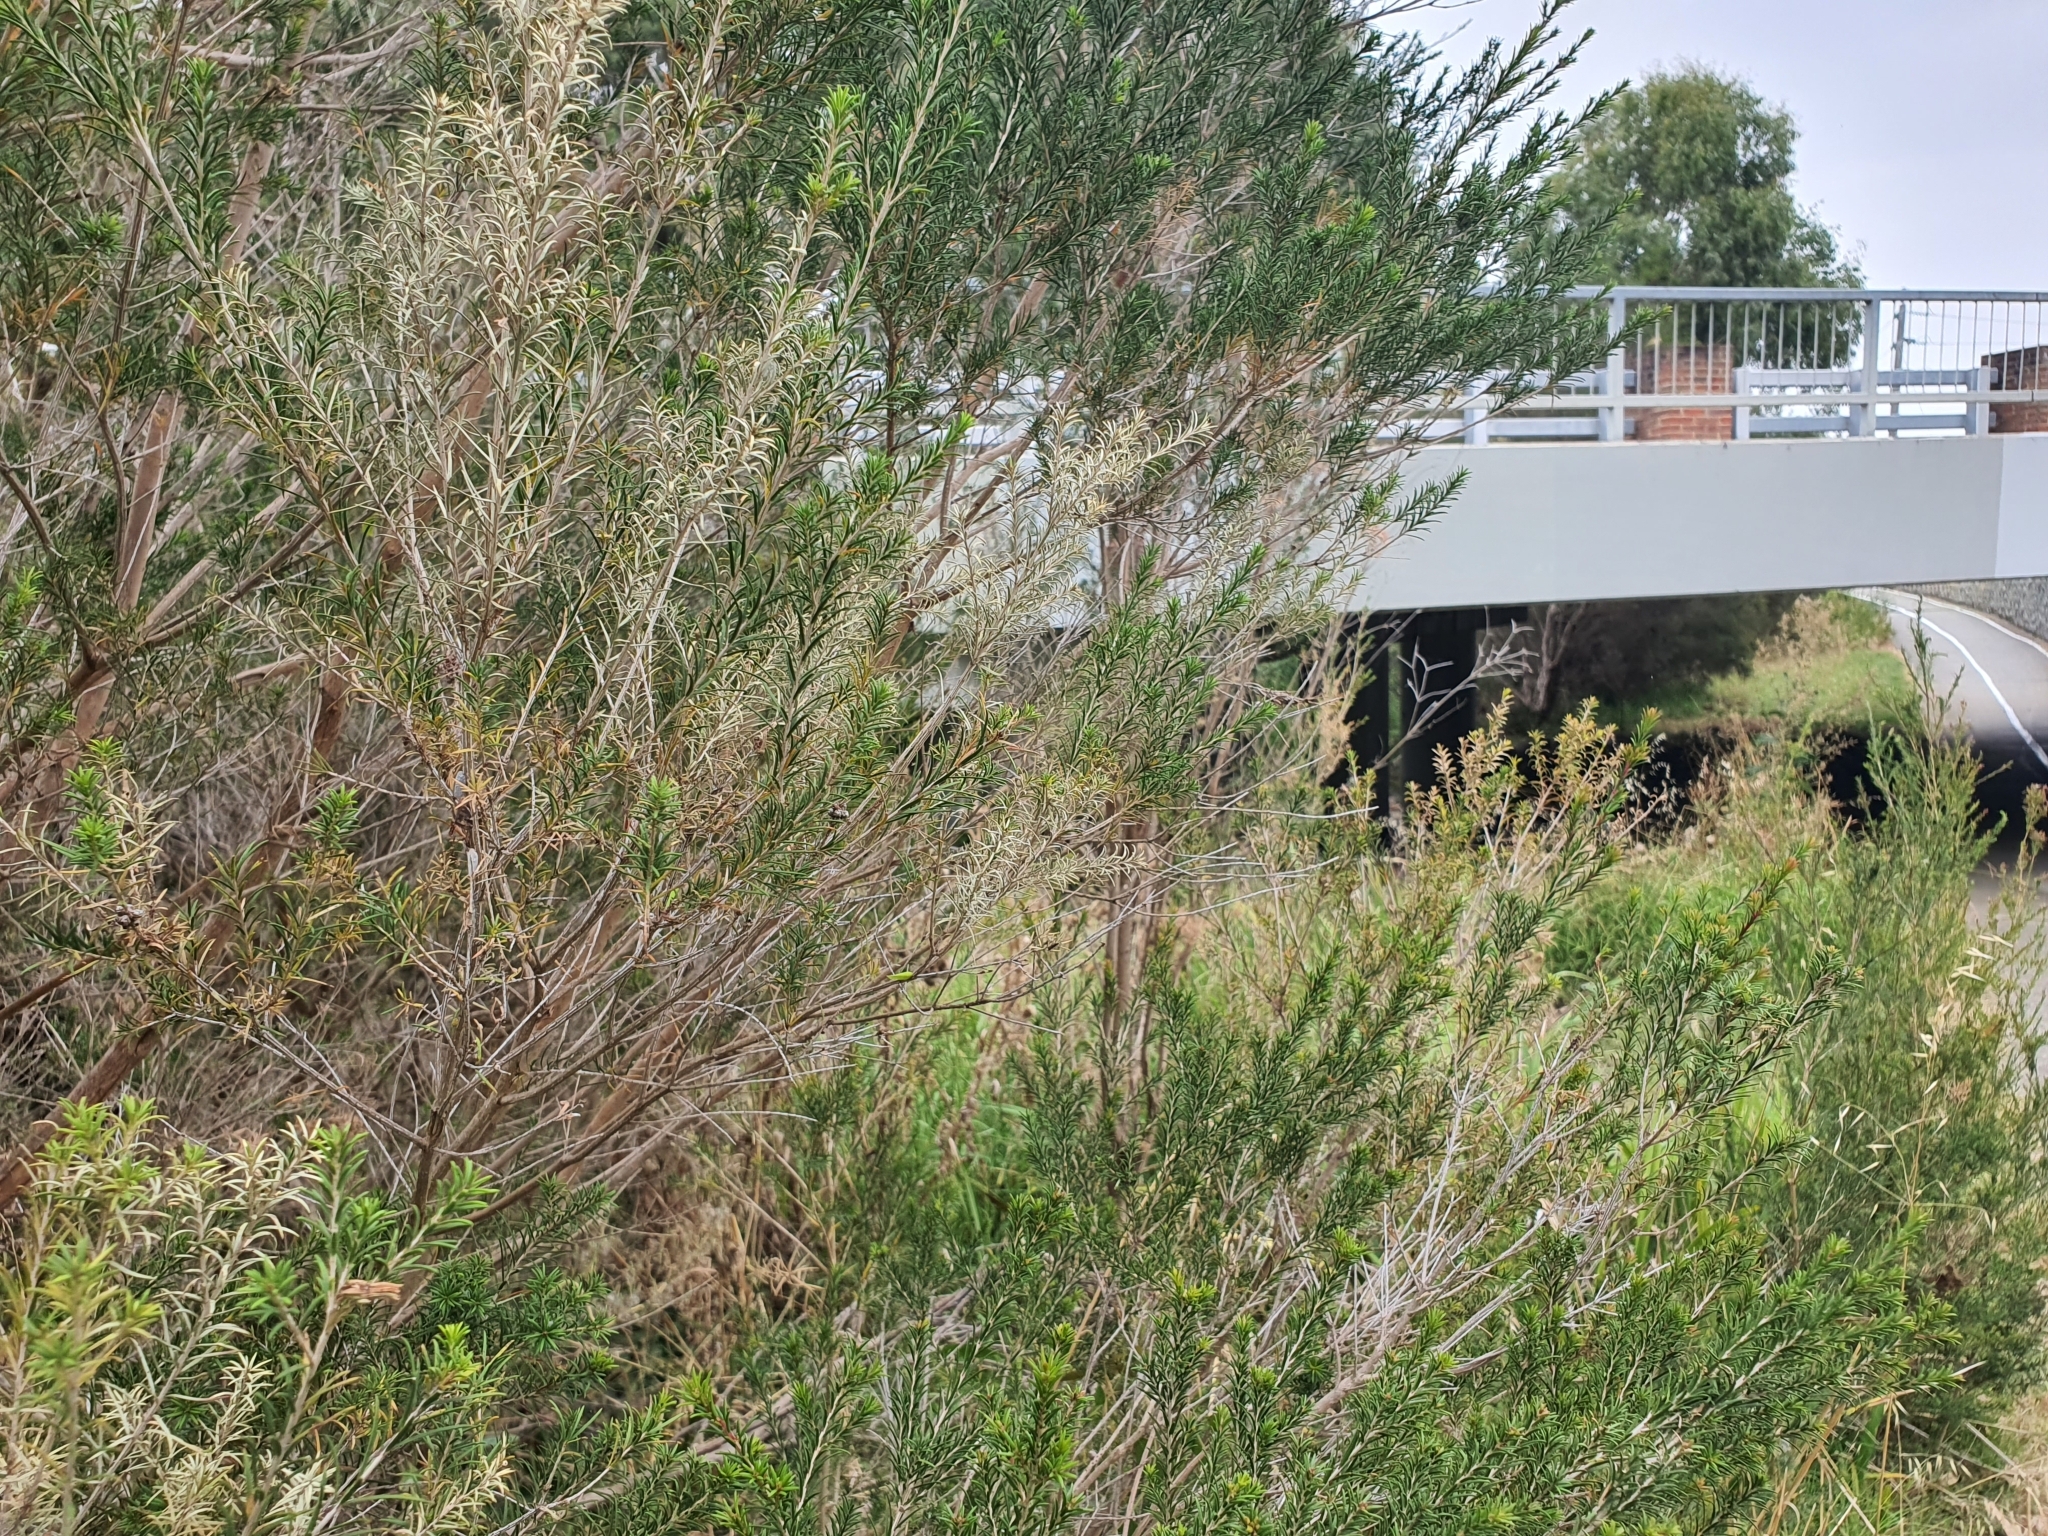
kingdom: Animalia
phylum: Arthropoda
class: Insecta
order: Hemiptera
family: Flatidae
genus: Anzora
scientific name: Anzora unicolor
